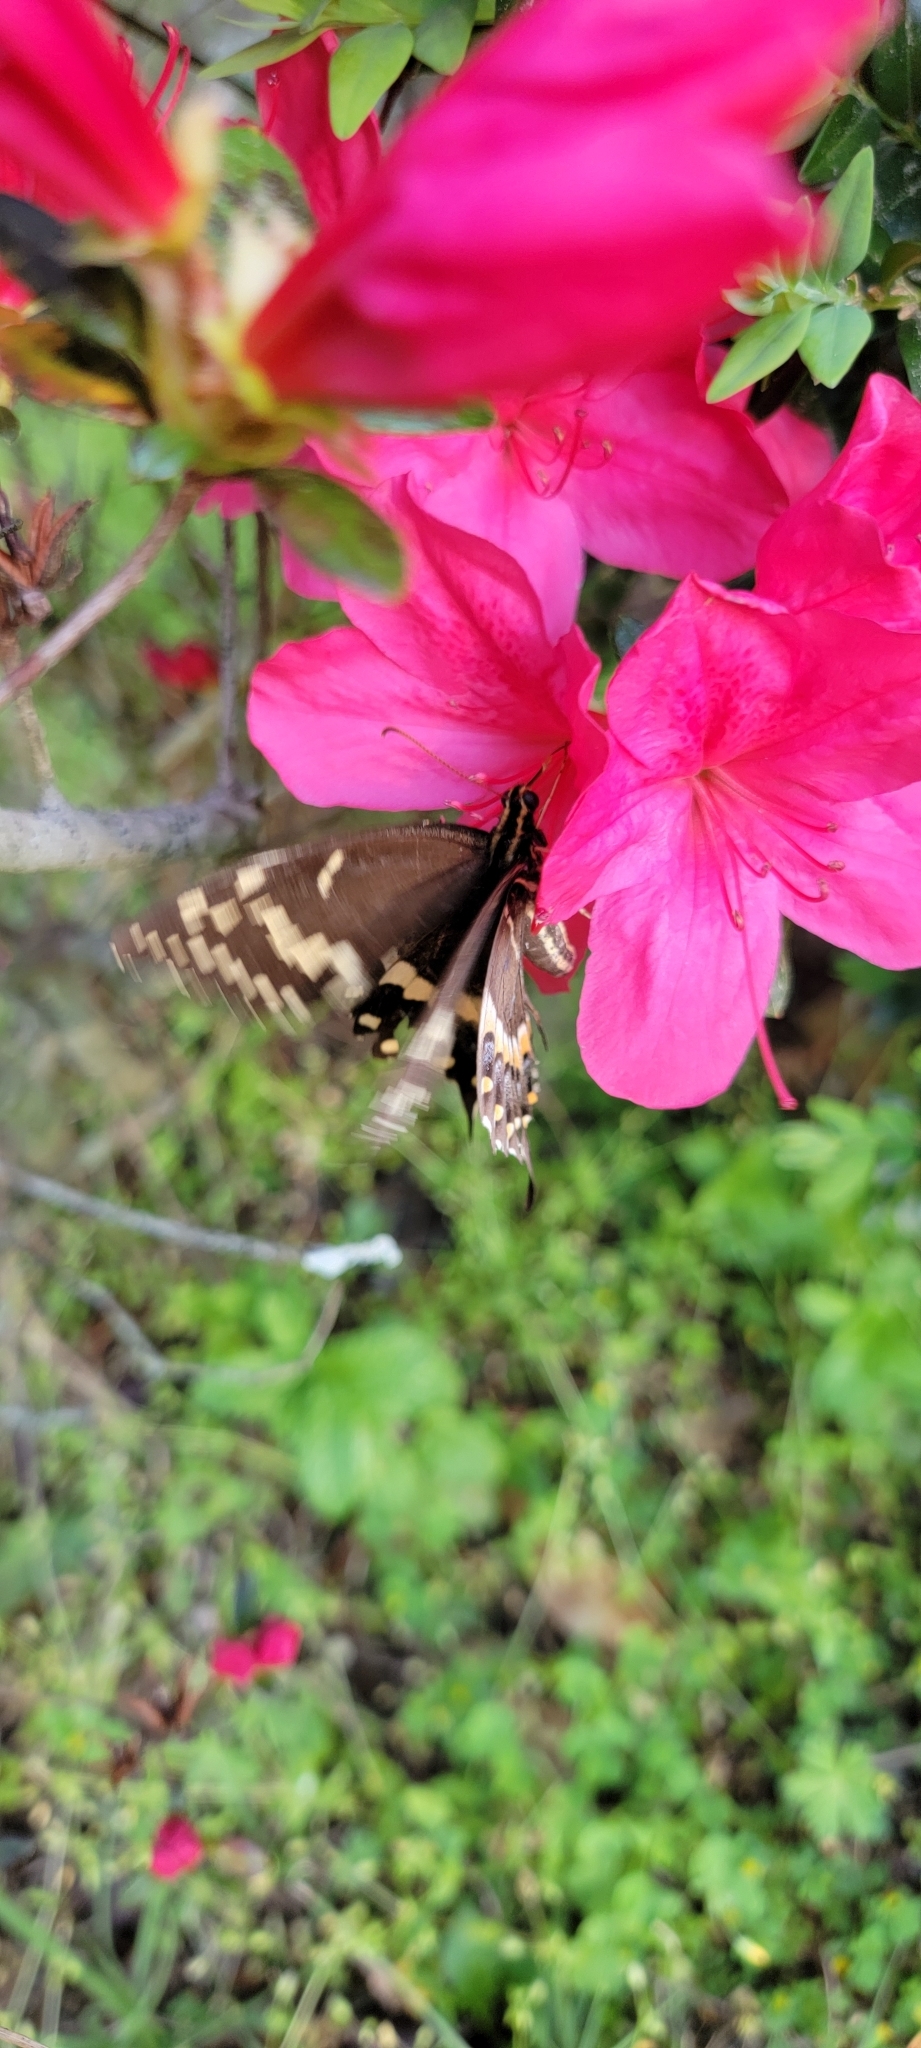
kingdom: Animalia
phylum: Arthropoda
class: Insecta
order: Lepidoptera
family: Papilionidae
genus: Papilio
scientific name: Papilio palamedes
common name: Palamedes swallowtail
